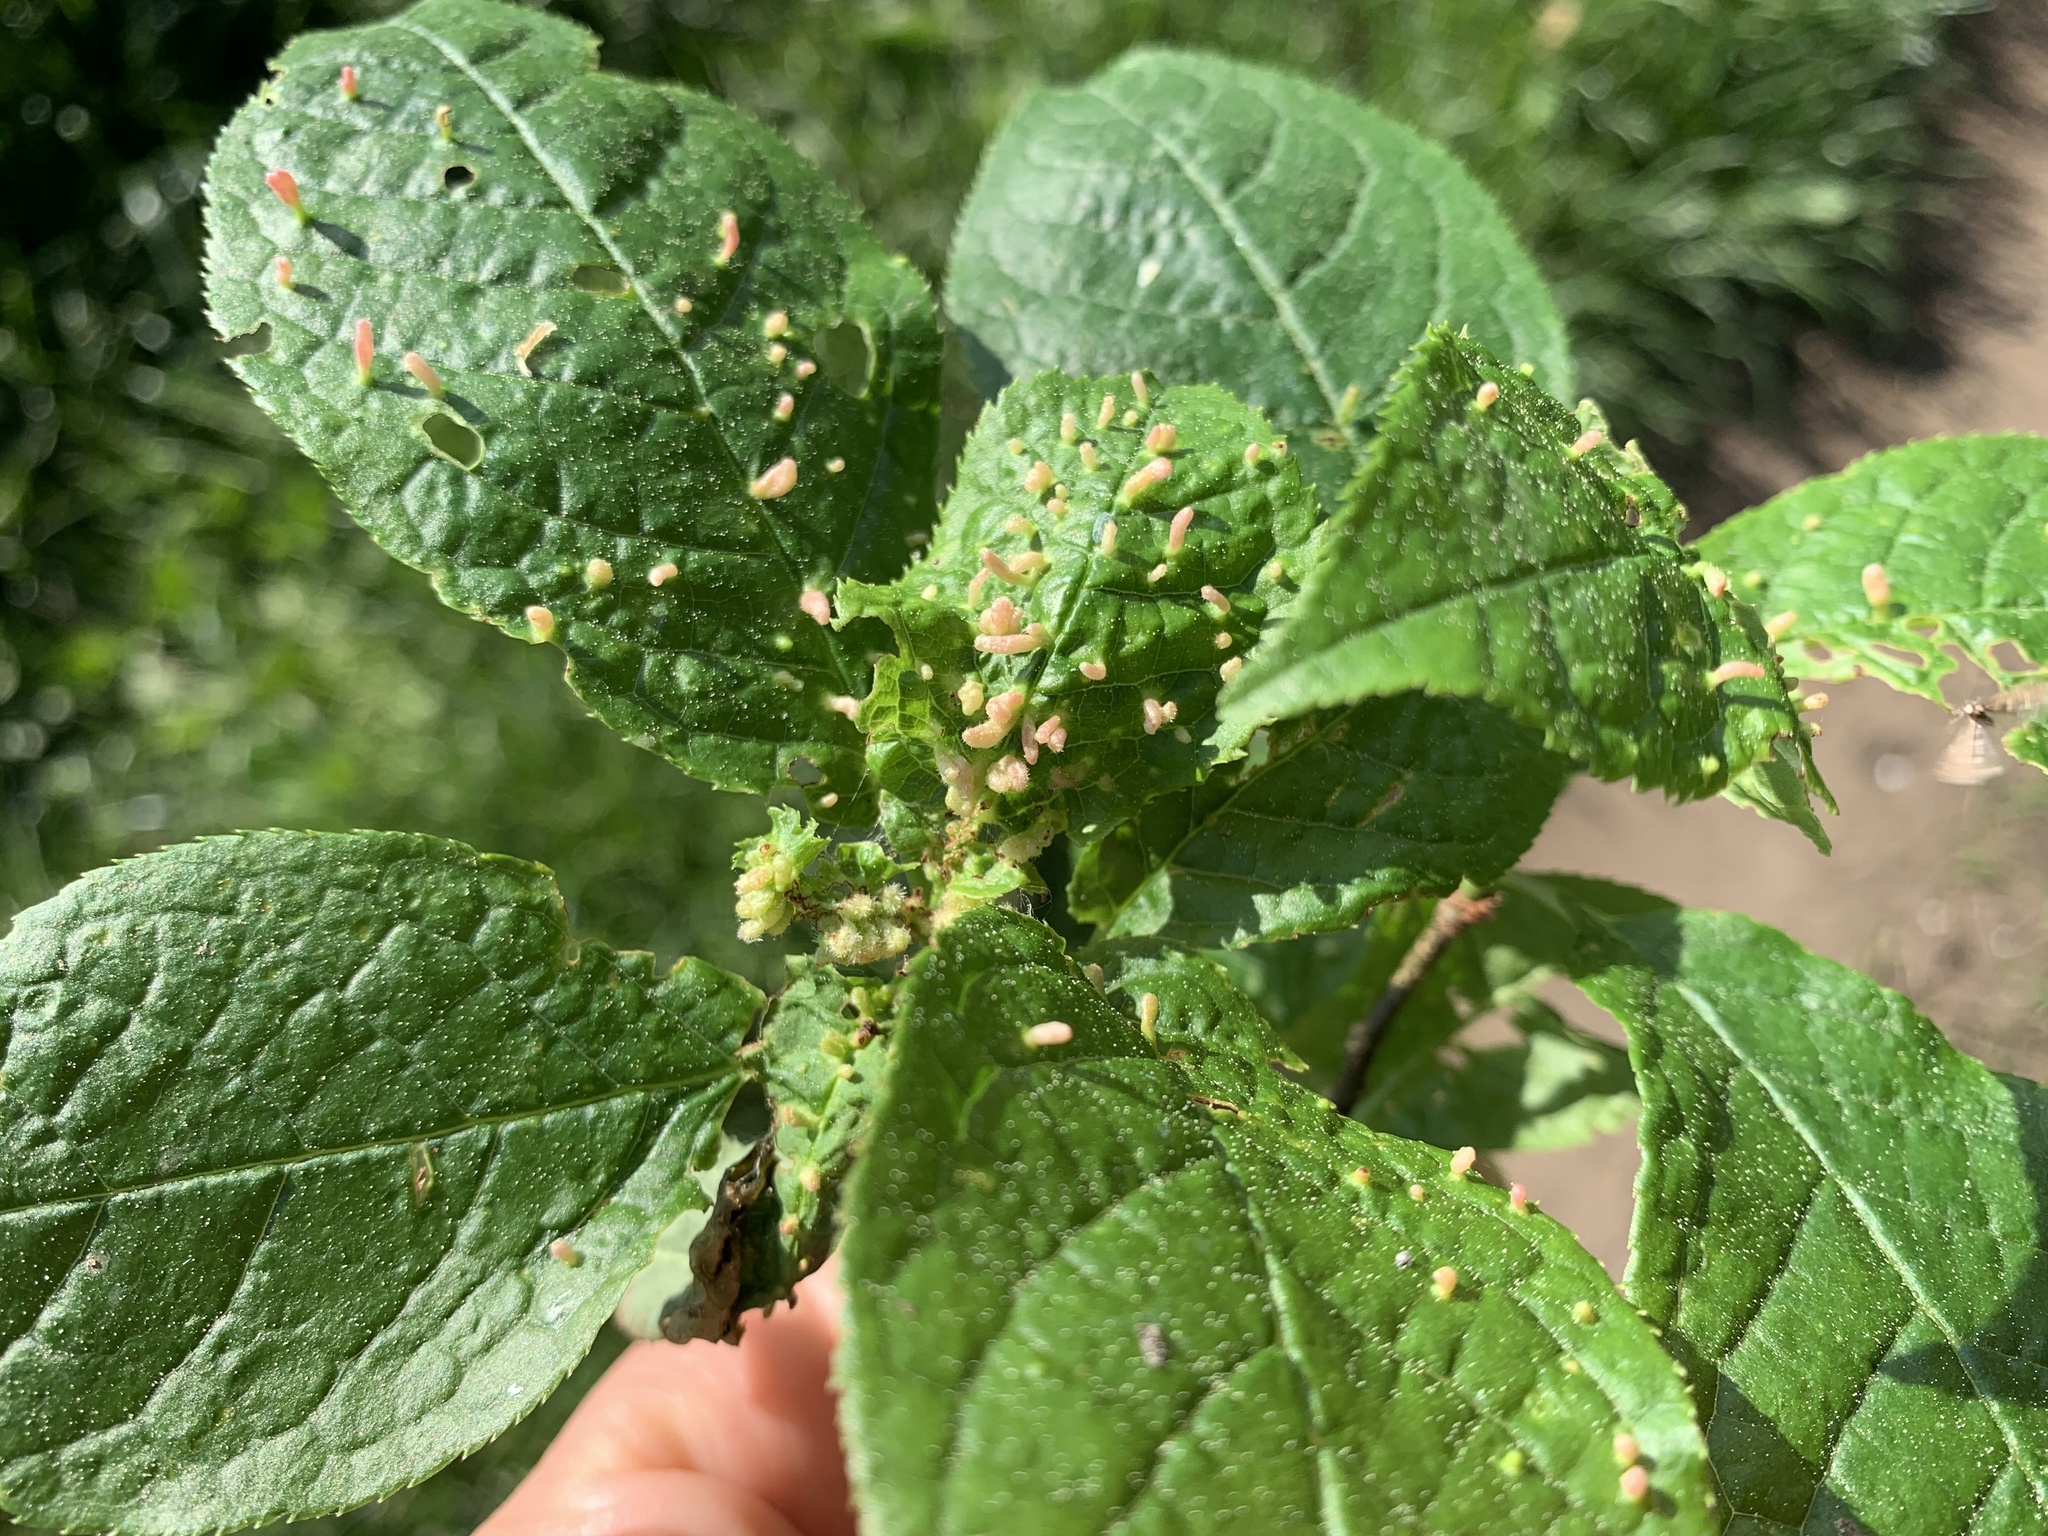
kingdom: Animalia
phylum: Arthropoda
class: Arachnida
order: Trombidiformes
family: Eriophyidae
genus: Phyllocoptes
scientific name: Phyllocoptes eupadi
